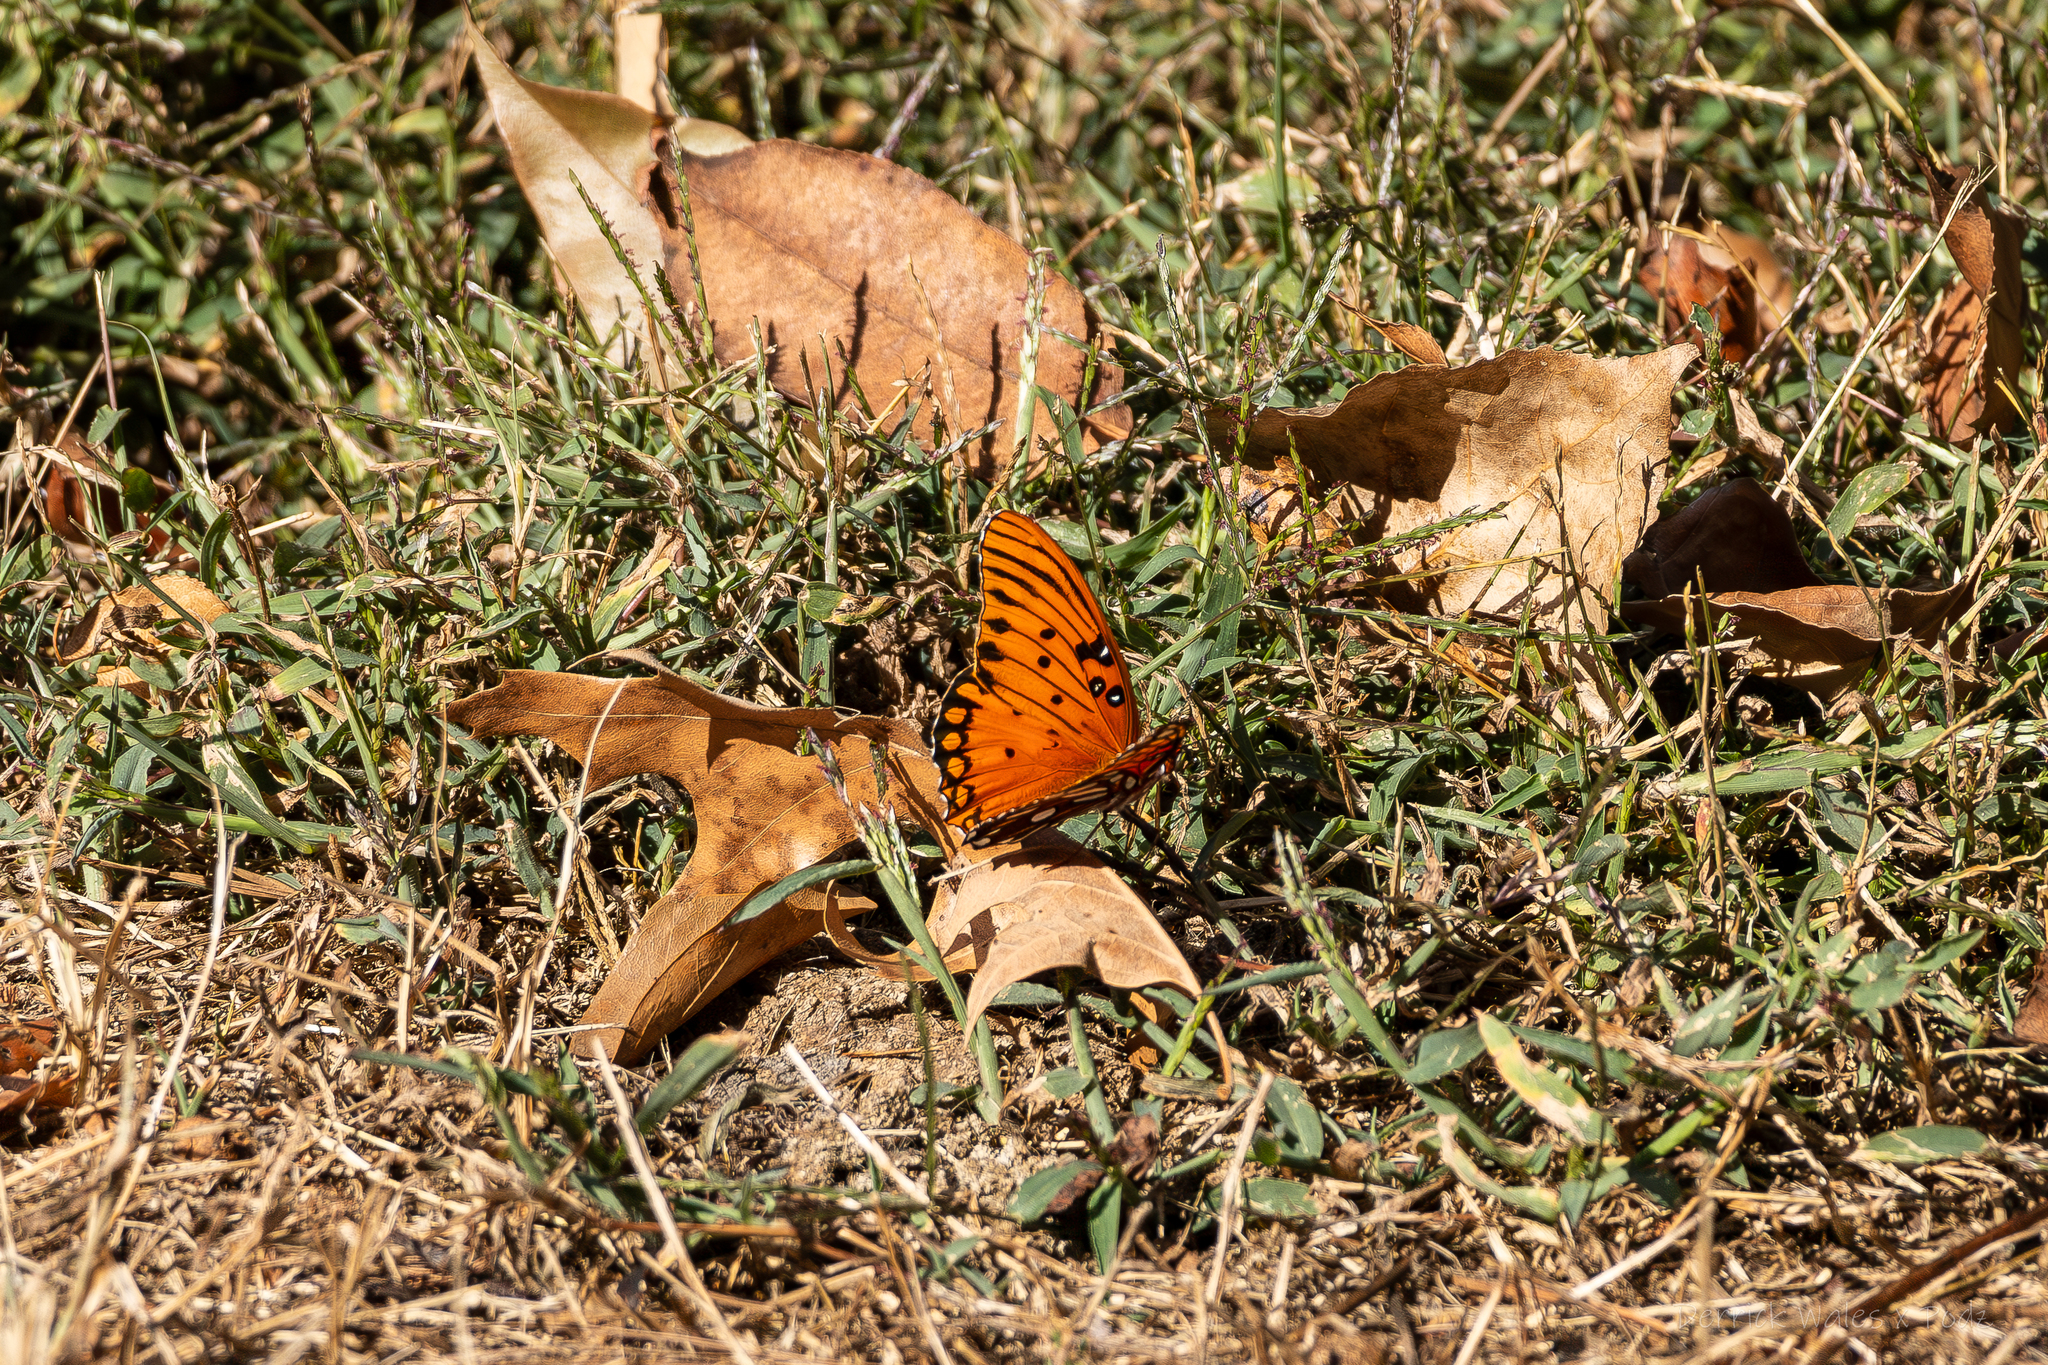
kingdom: Animalia
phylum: Arthropoda
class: Insecta
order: Lepidoptera
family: Nymphalidae
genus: Dione
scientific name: Dione vanillae
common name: Gulf fritillary
